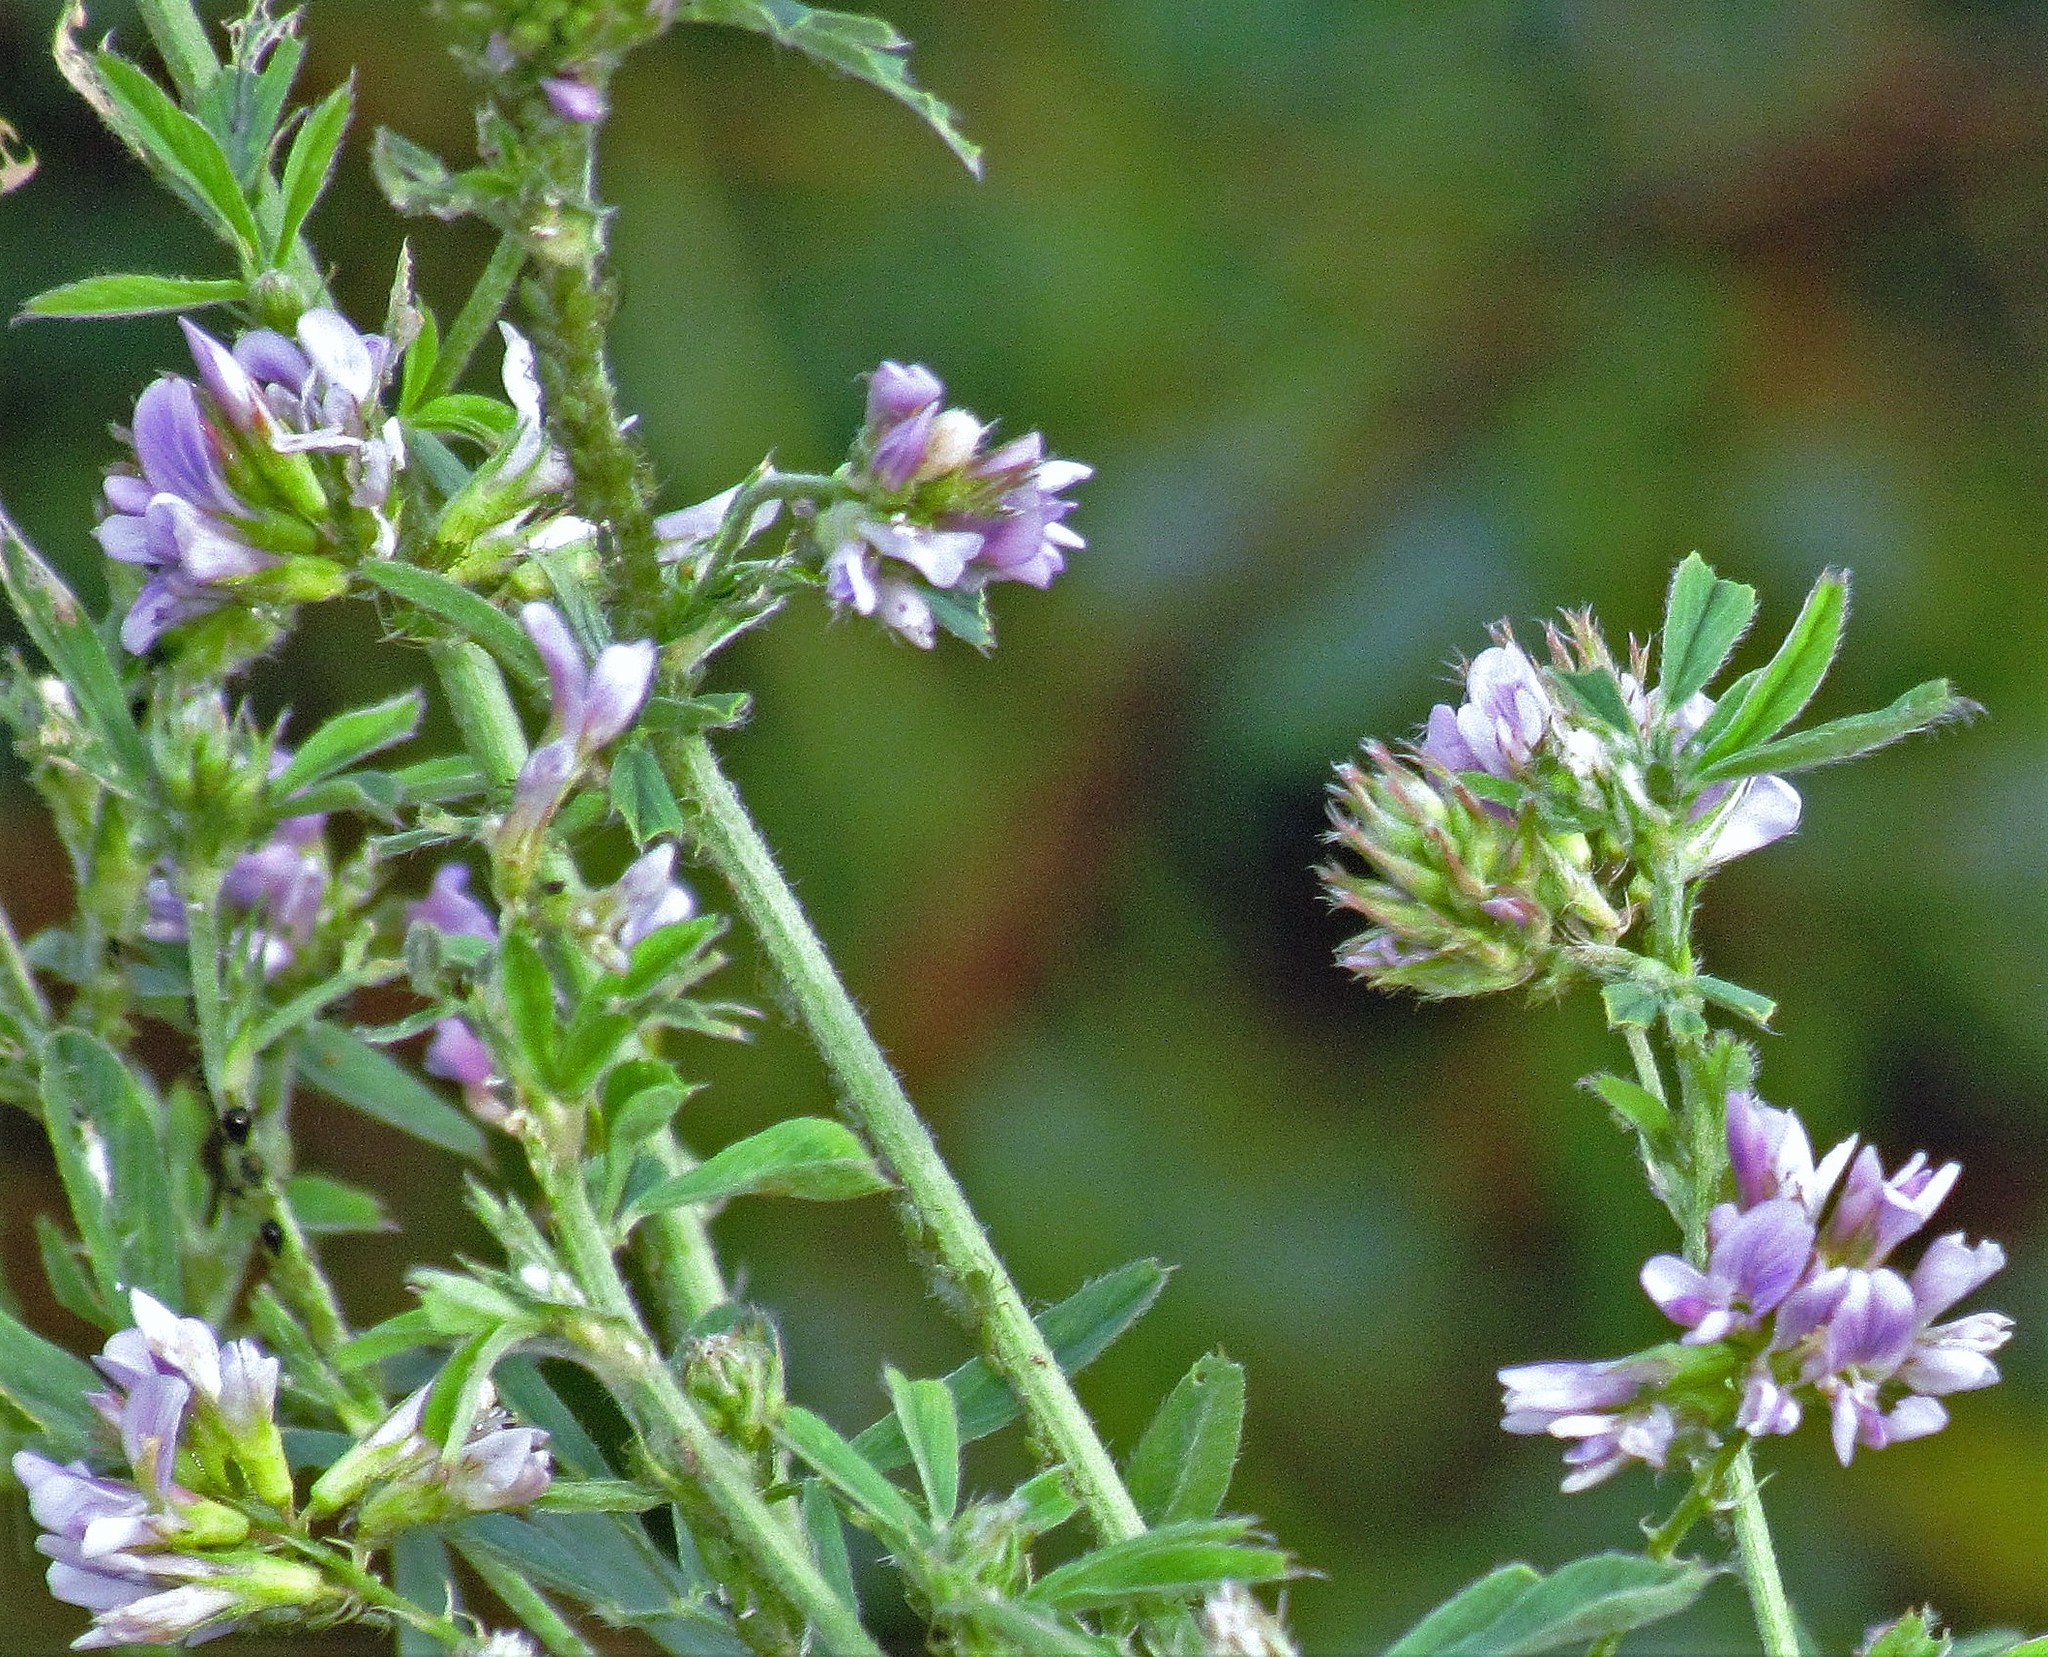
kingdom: Plantae
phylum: Tracheophyta
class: Magnoliopsida
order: Fabales
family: Fabaceae
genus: Medicago
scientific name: Medicago sativa
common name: Alfalfa
